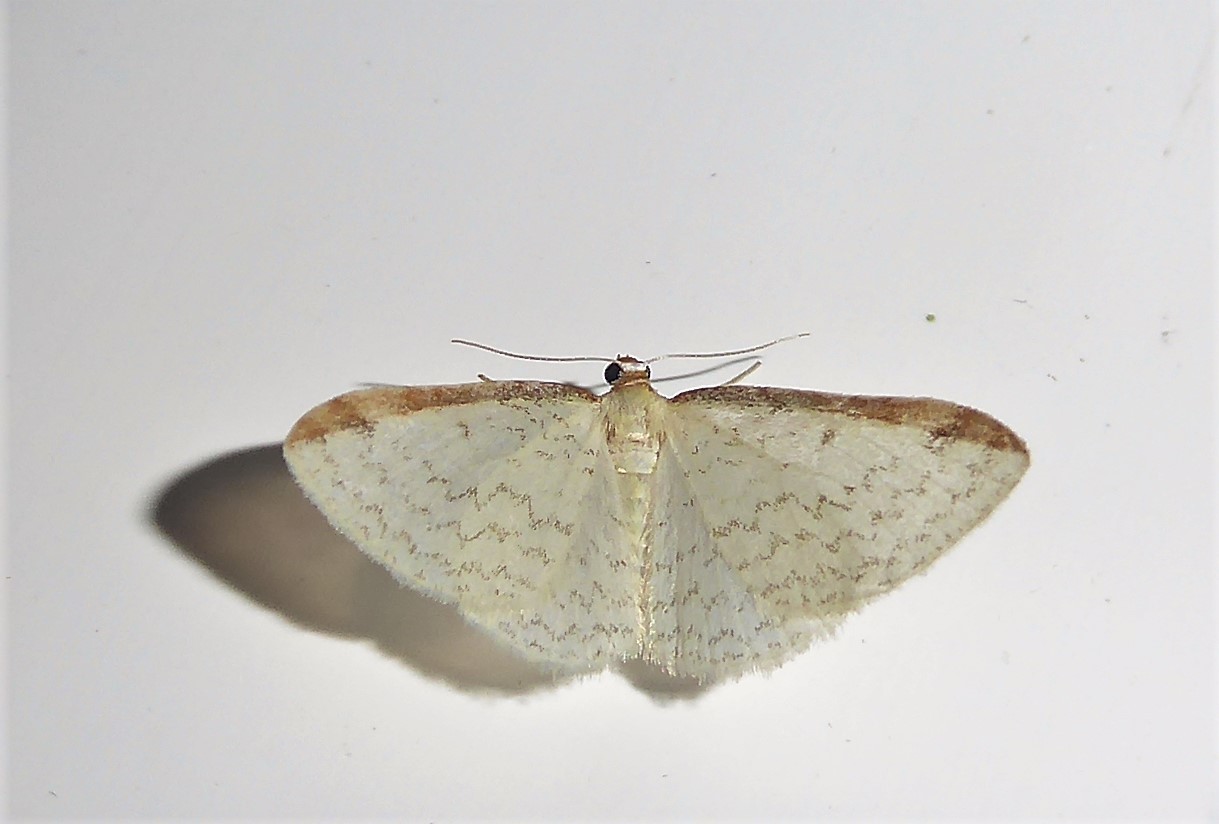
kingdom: Animalia
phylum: Arthropoda
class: Insecta
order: Lepidoptera
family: Geometridae
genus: Epiphryne
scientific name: Epiphryne undosata
